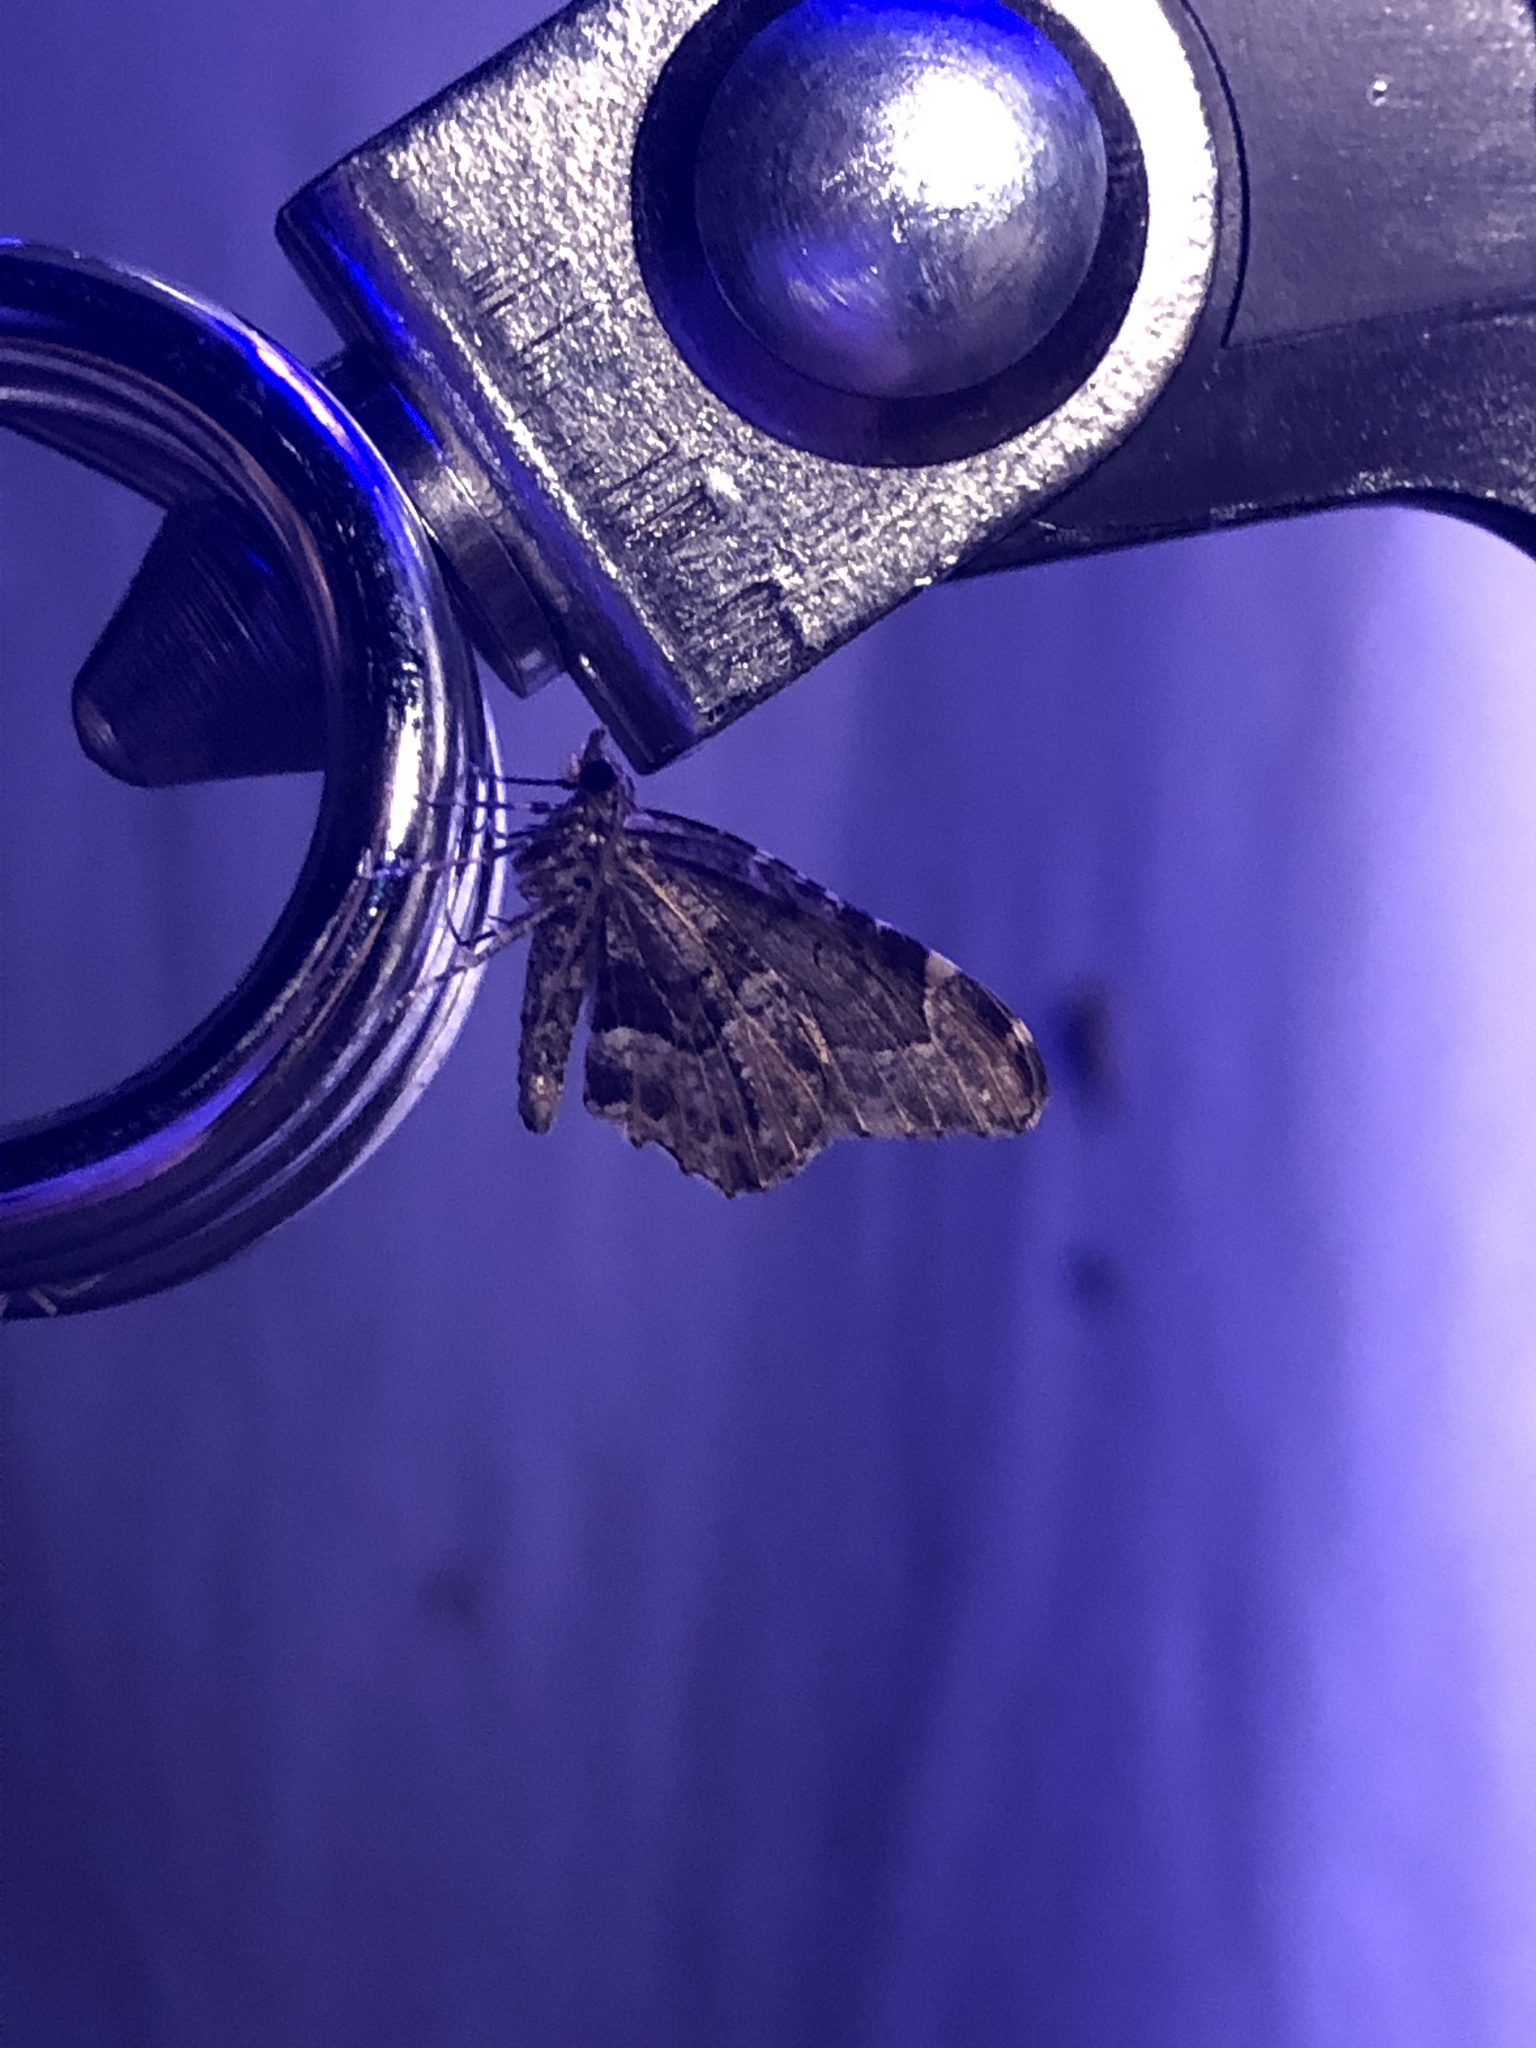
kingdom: Animalia
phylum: Arthropoda
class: Insecta
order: Lepidoptera
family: Geometridae
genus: Ceratodalia
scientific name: Ceratodalia gueneata
